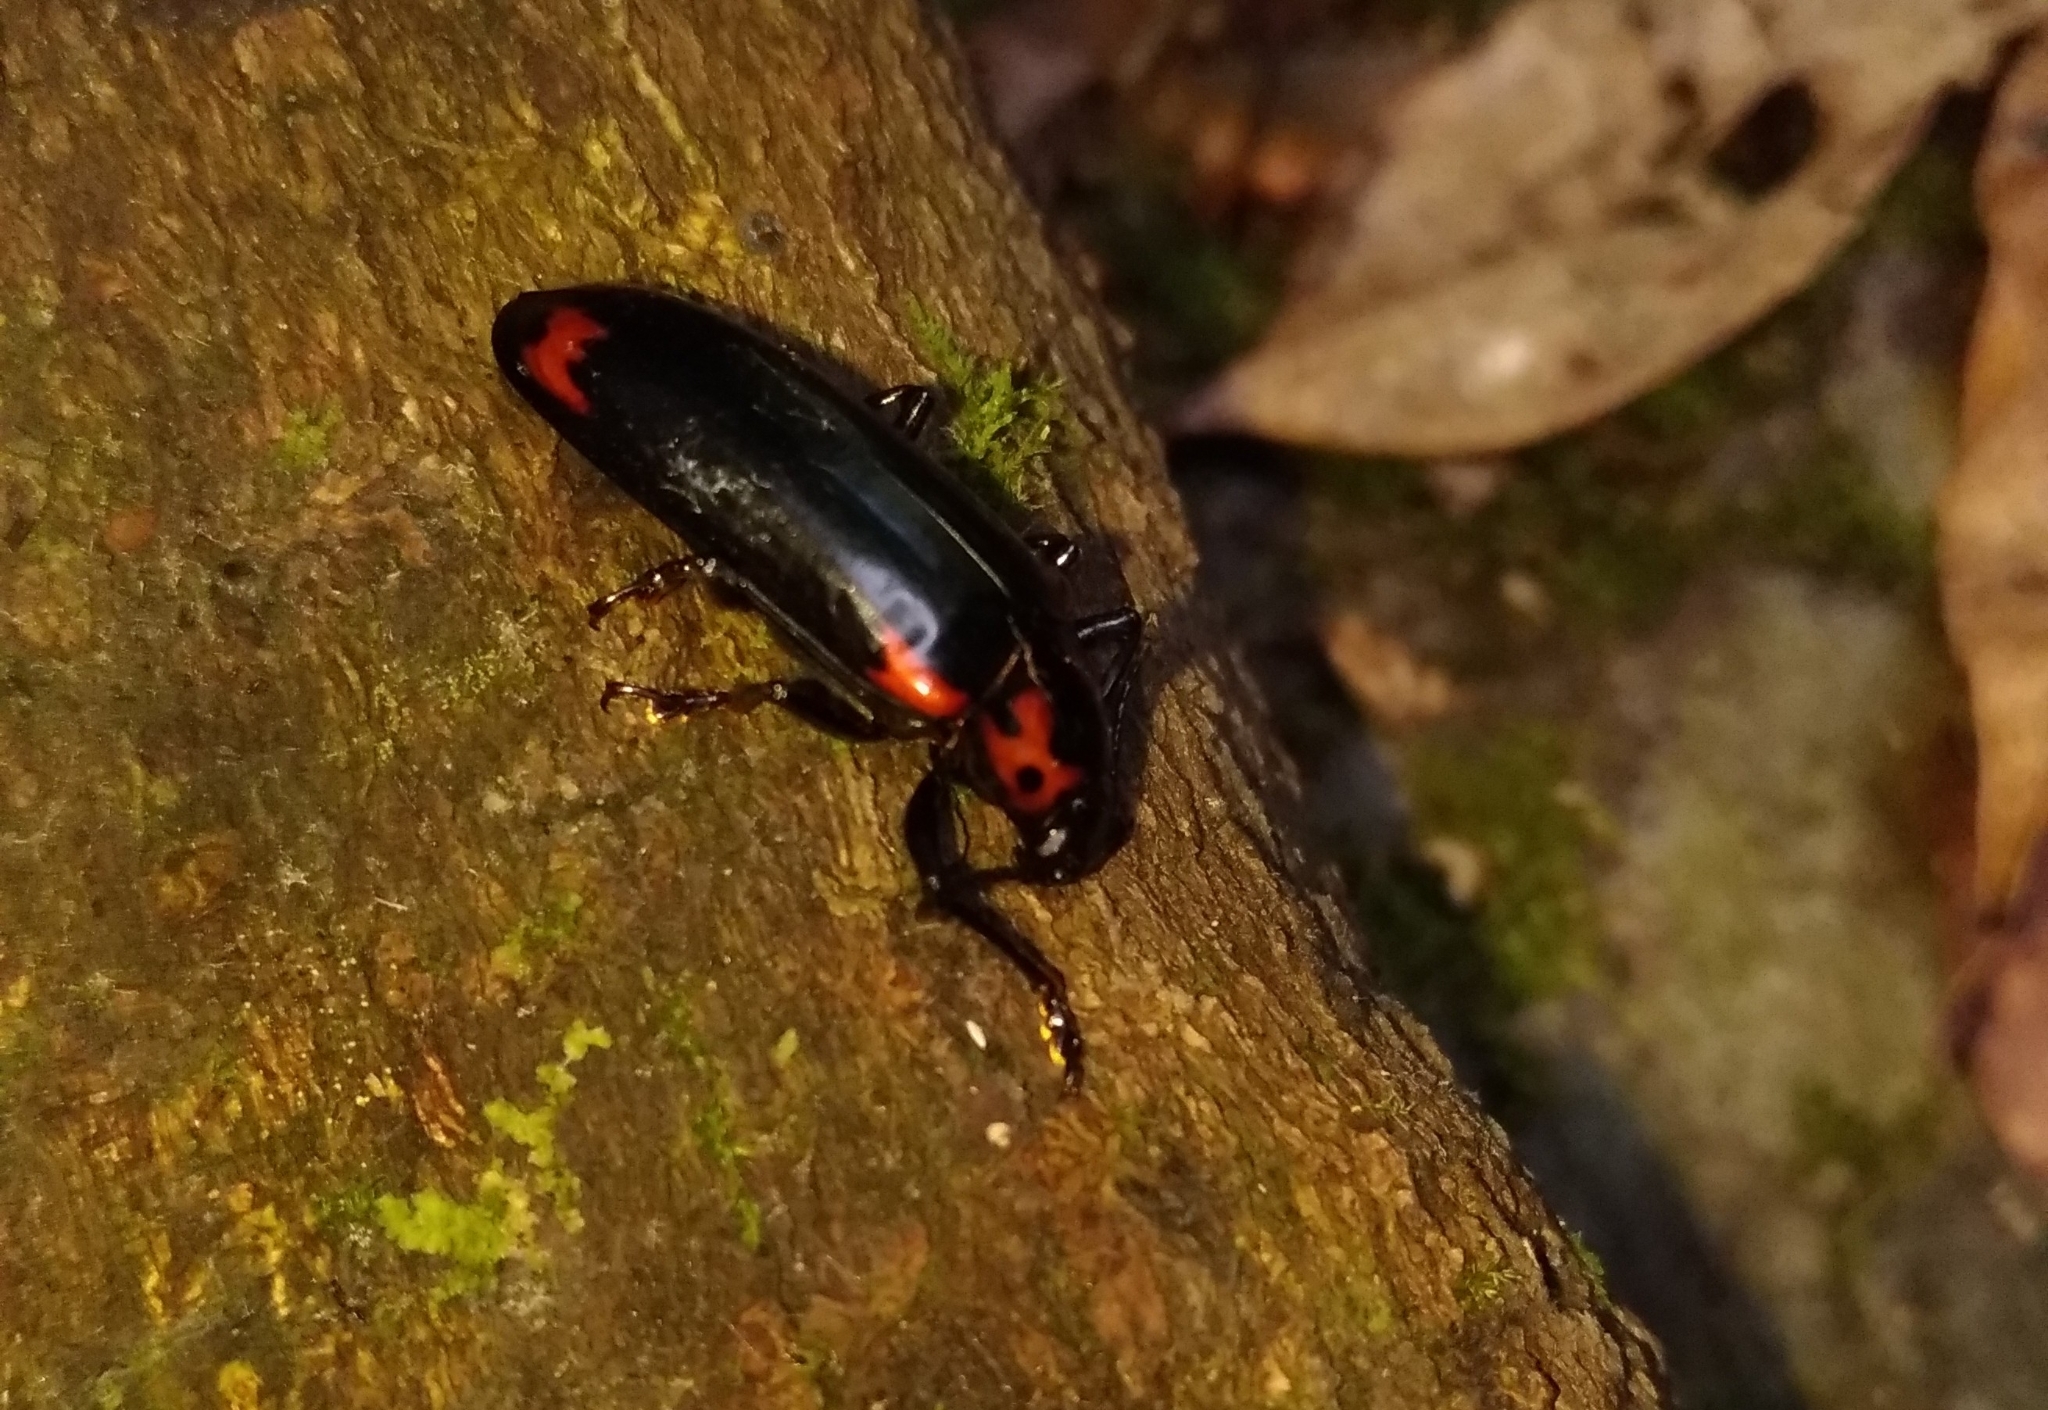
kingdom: Animalia
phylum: Arthropoda
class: Insecta
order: Coleoptera
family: Erotylidae
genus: Encaustes
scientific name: Encaustes cruenta
